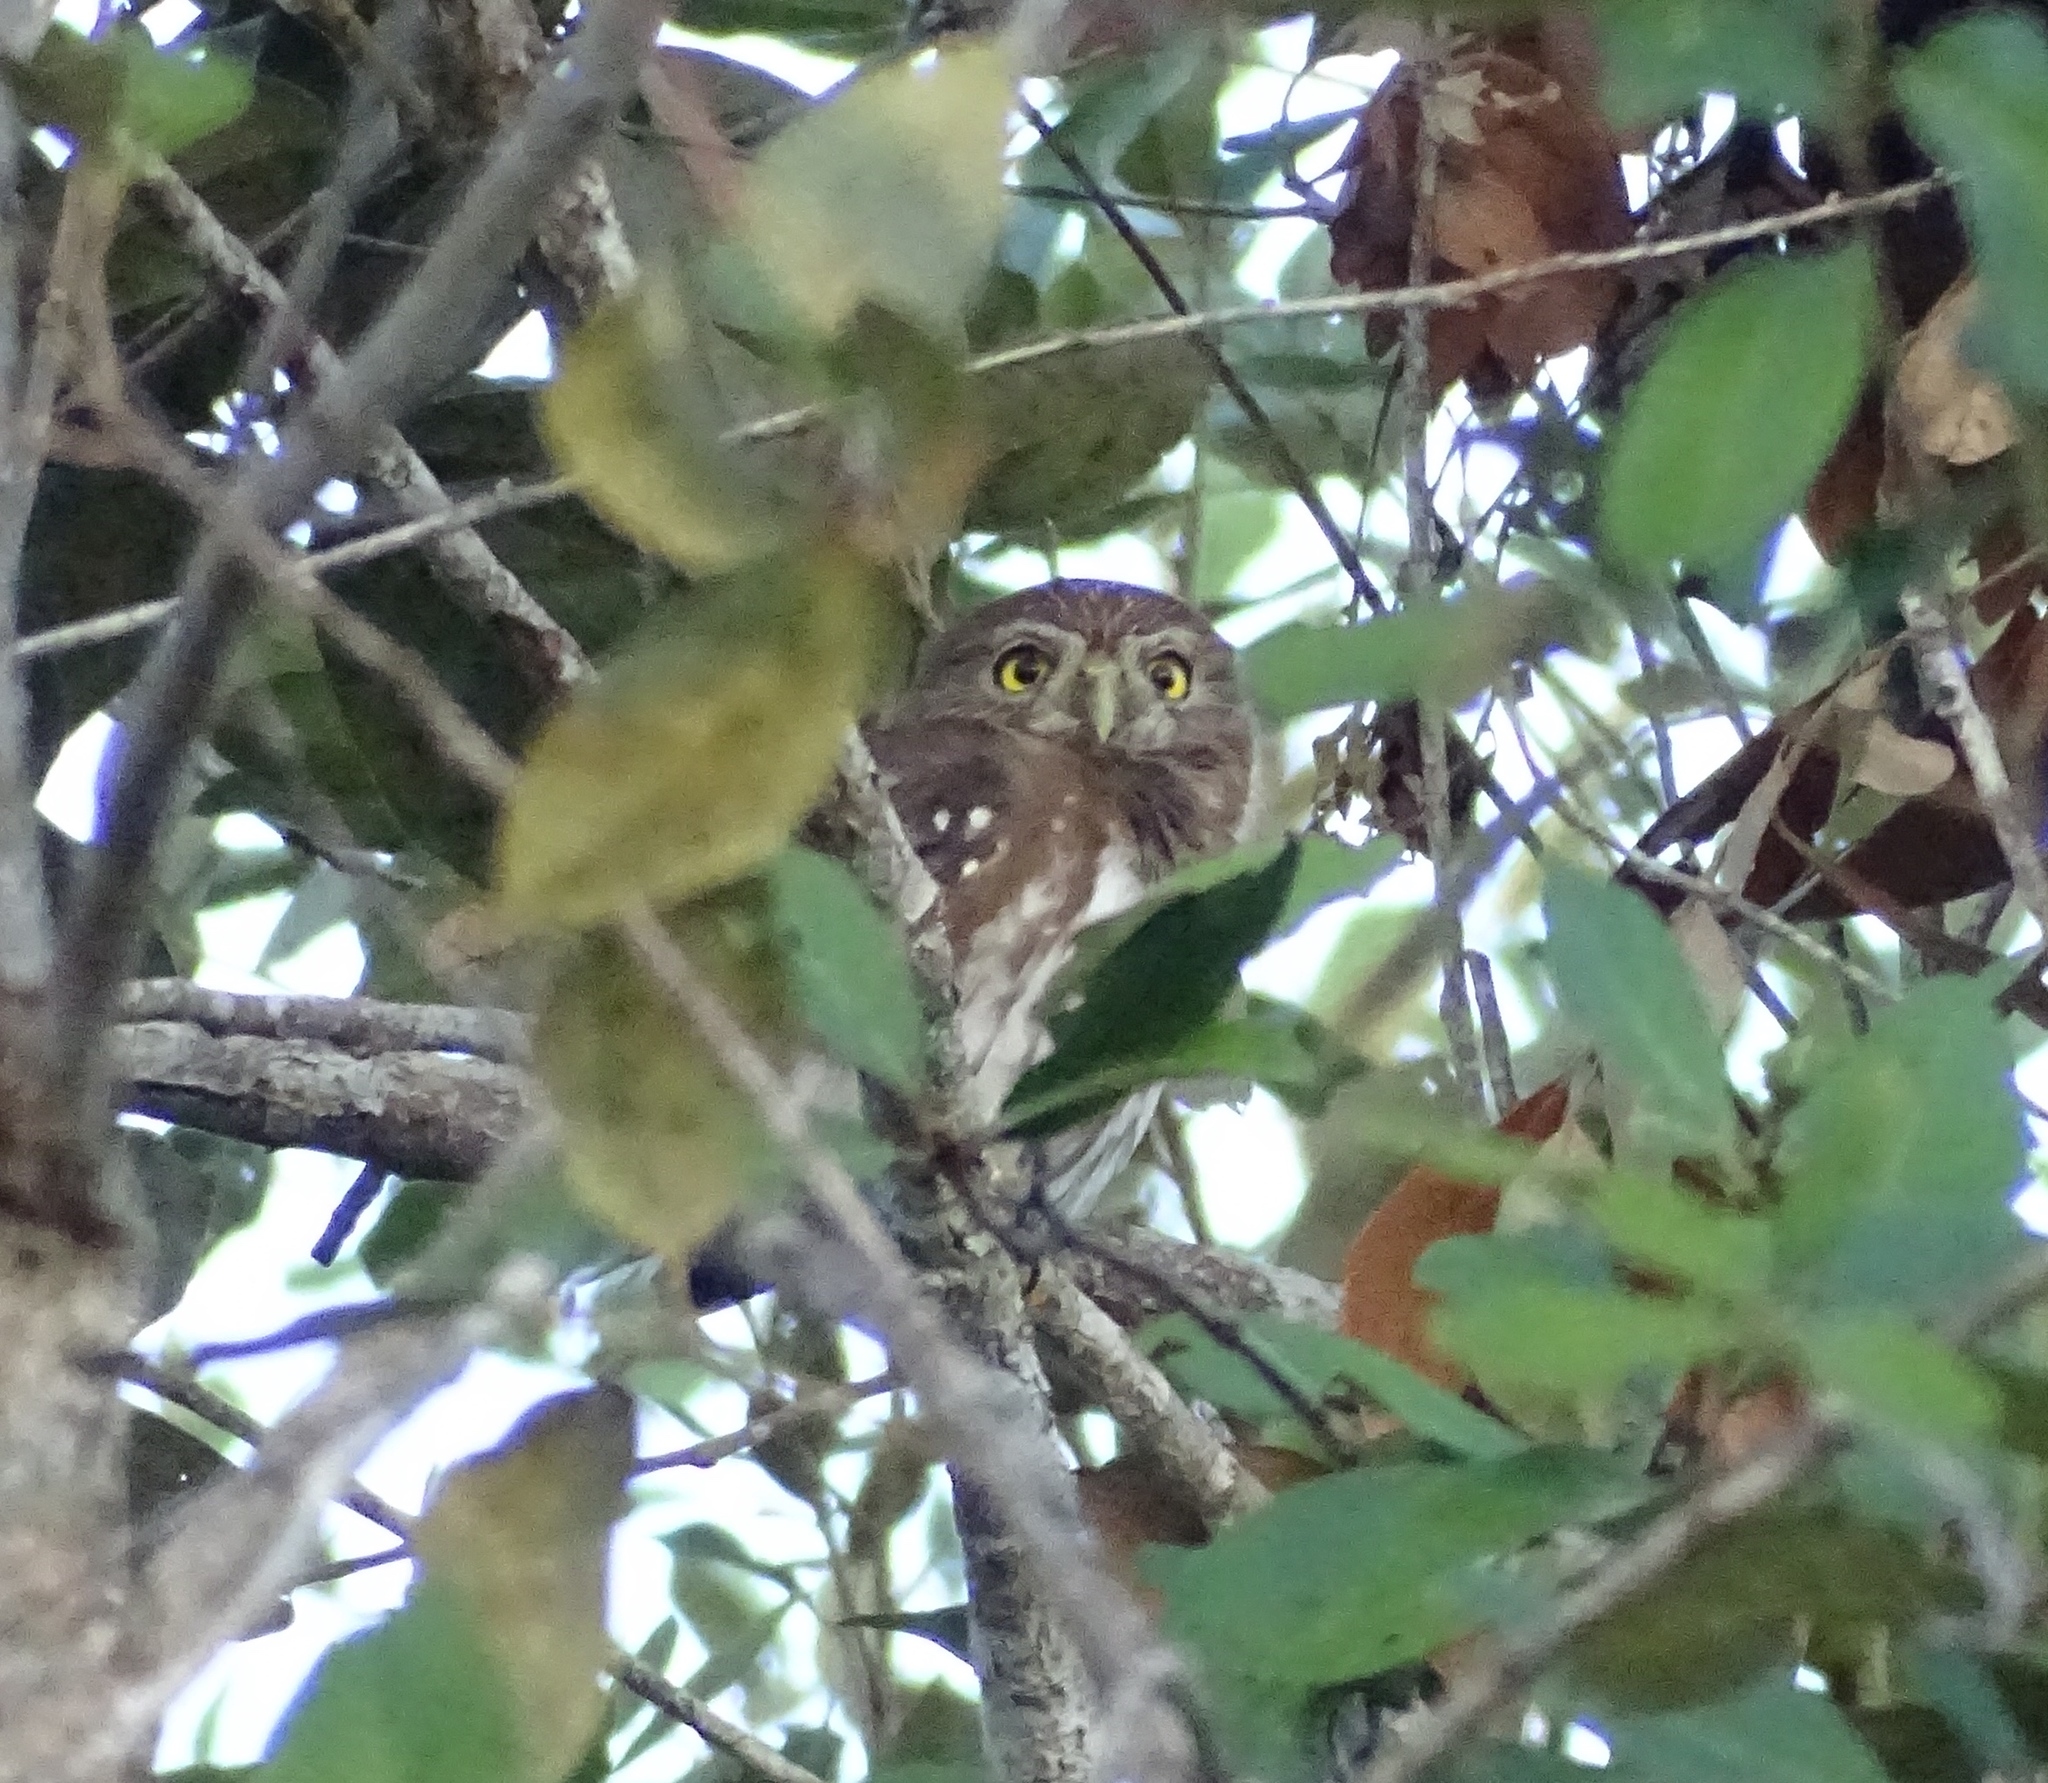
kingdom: Animalia
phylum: Chordata
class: Aves
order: Strigiformes
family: Strigidae
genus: Glaucidium
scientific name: Glaucidium brasilianum
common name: Ferruginous pygmy-owl
